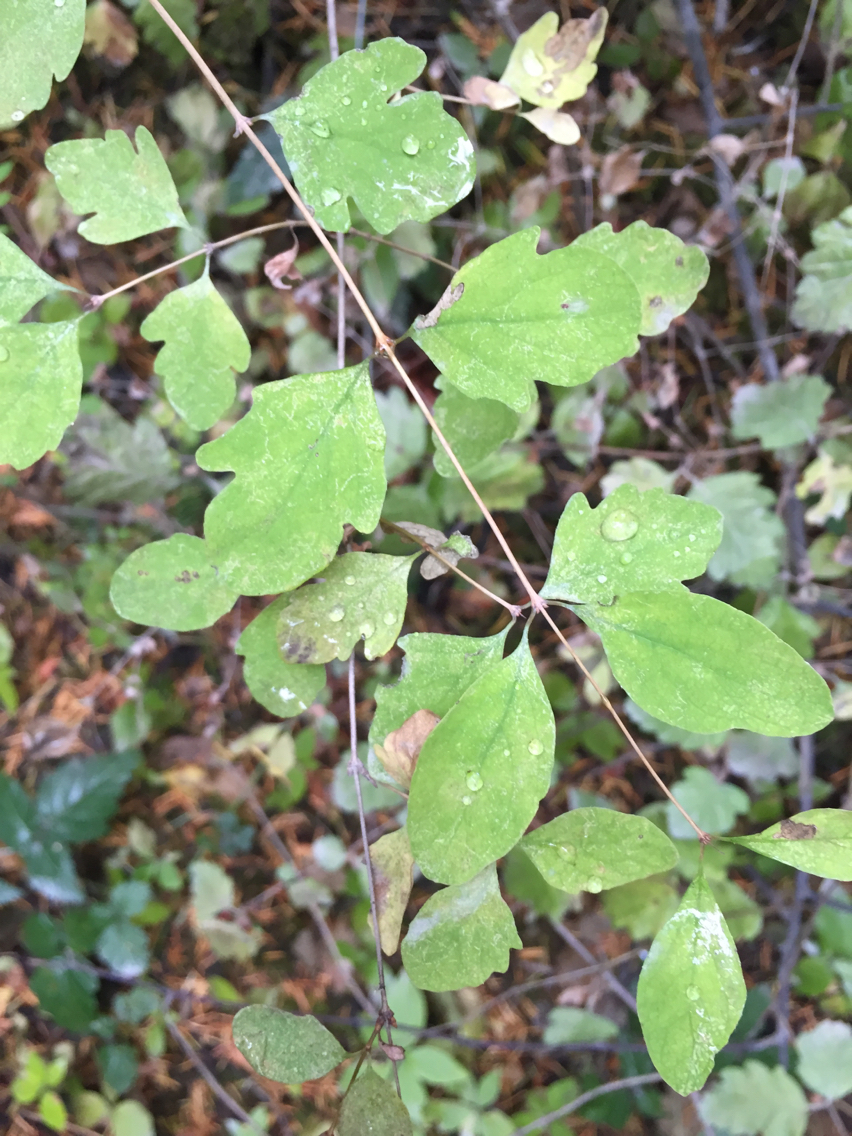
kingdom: Plantae
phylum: Tracheophyta
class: Magnoliopsida
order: Dipsacales
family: Caprifoliaceae
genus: Symphoricarpos
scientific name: Symphoricarpos albus
